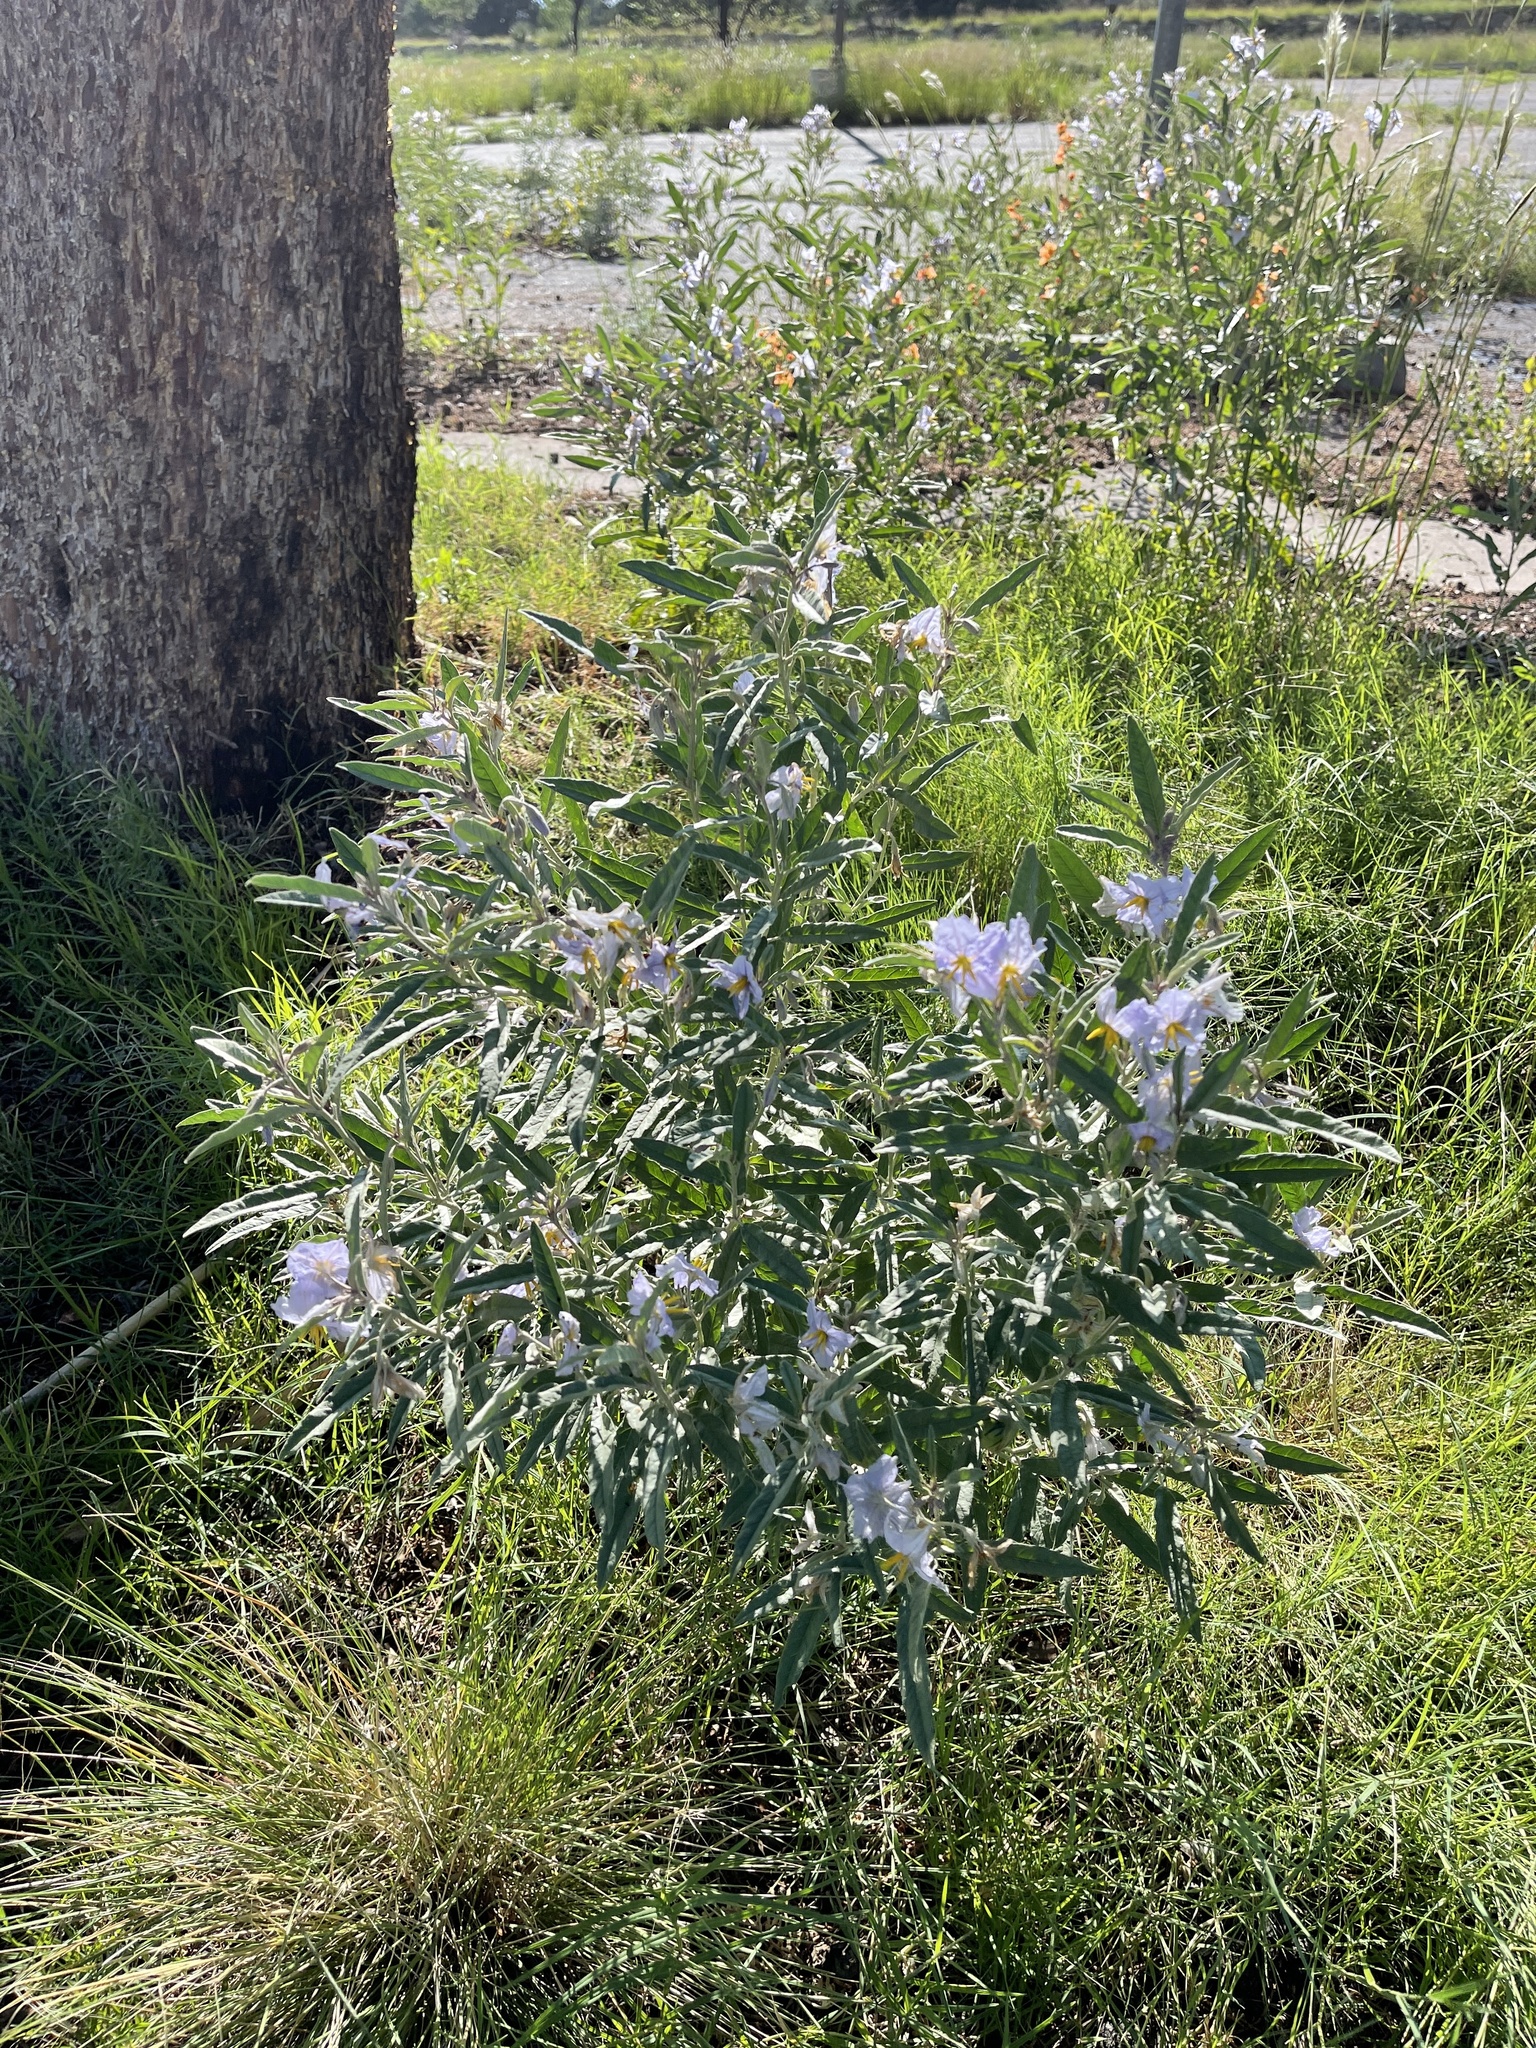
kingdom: Plantae
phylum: Tracheophyta
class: Magnoliopsida
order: Solanales
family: Solanaceae
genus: Solanum
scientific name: Solanum elaeagnifolium
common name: Silverleaf nightshade
